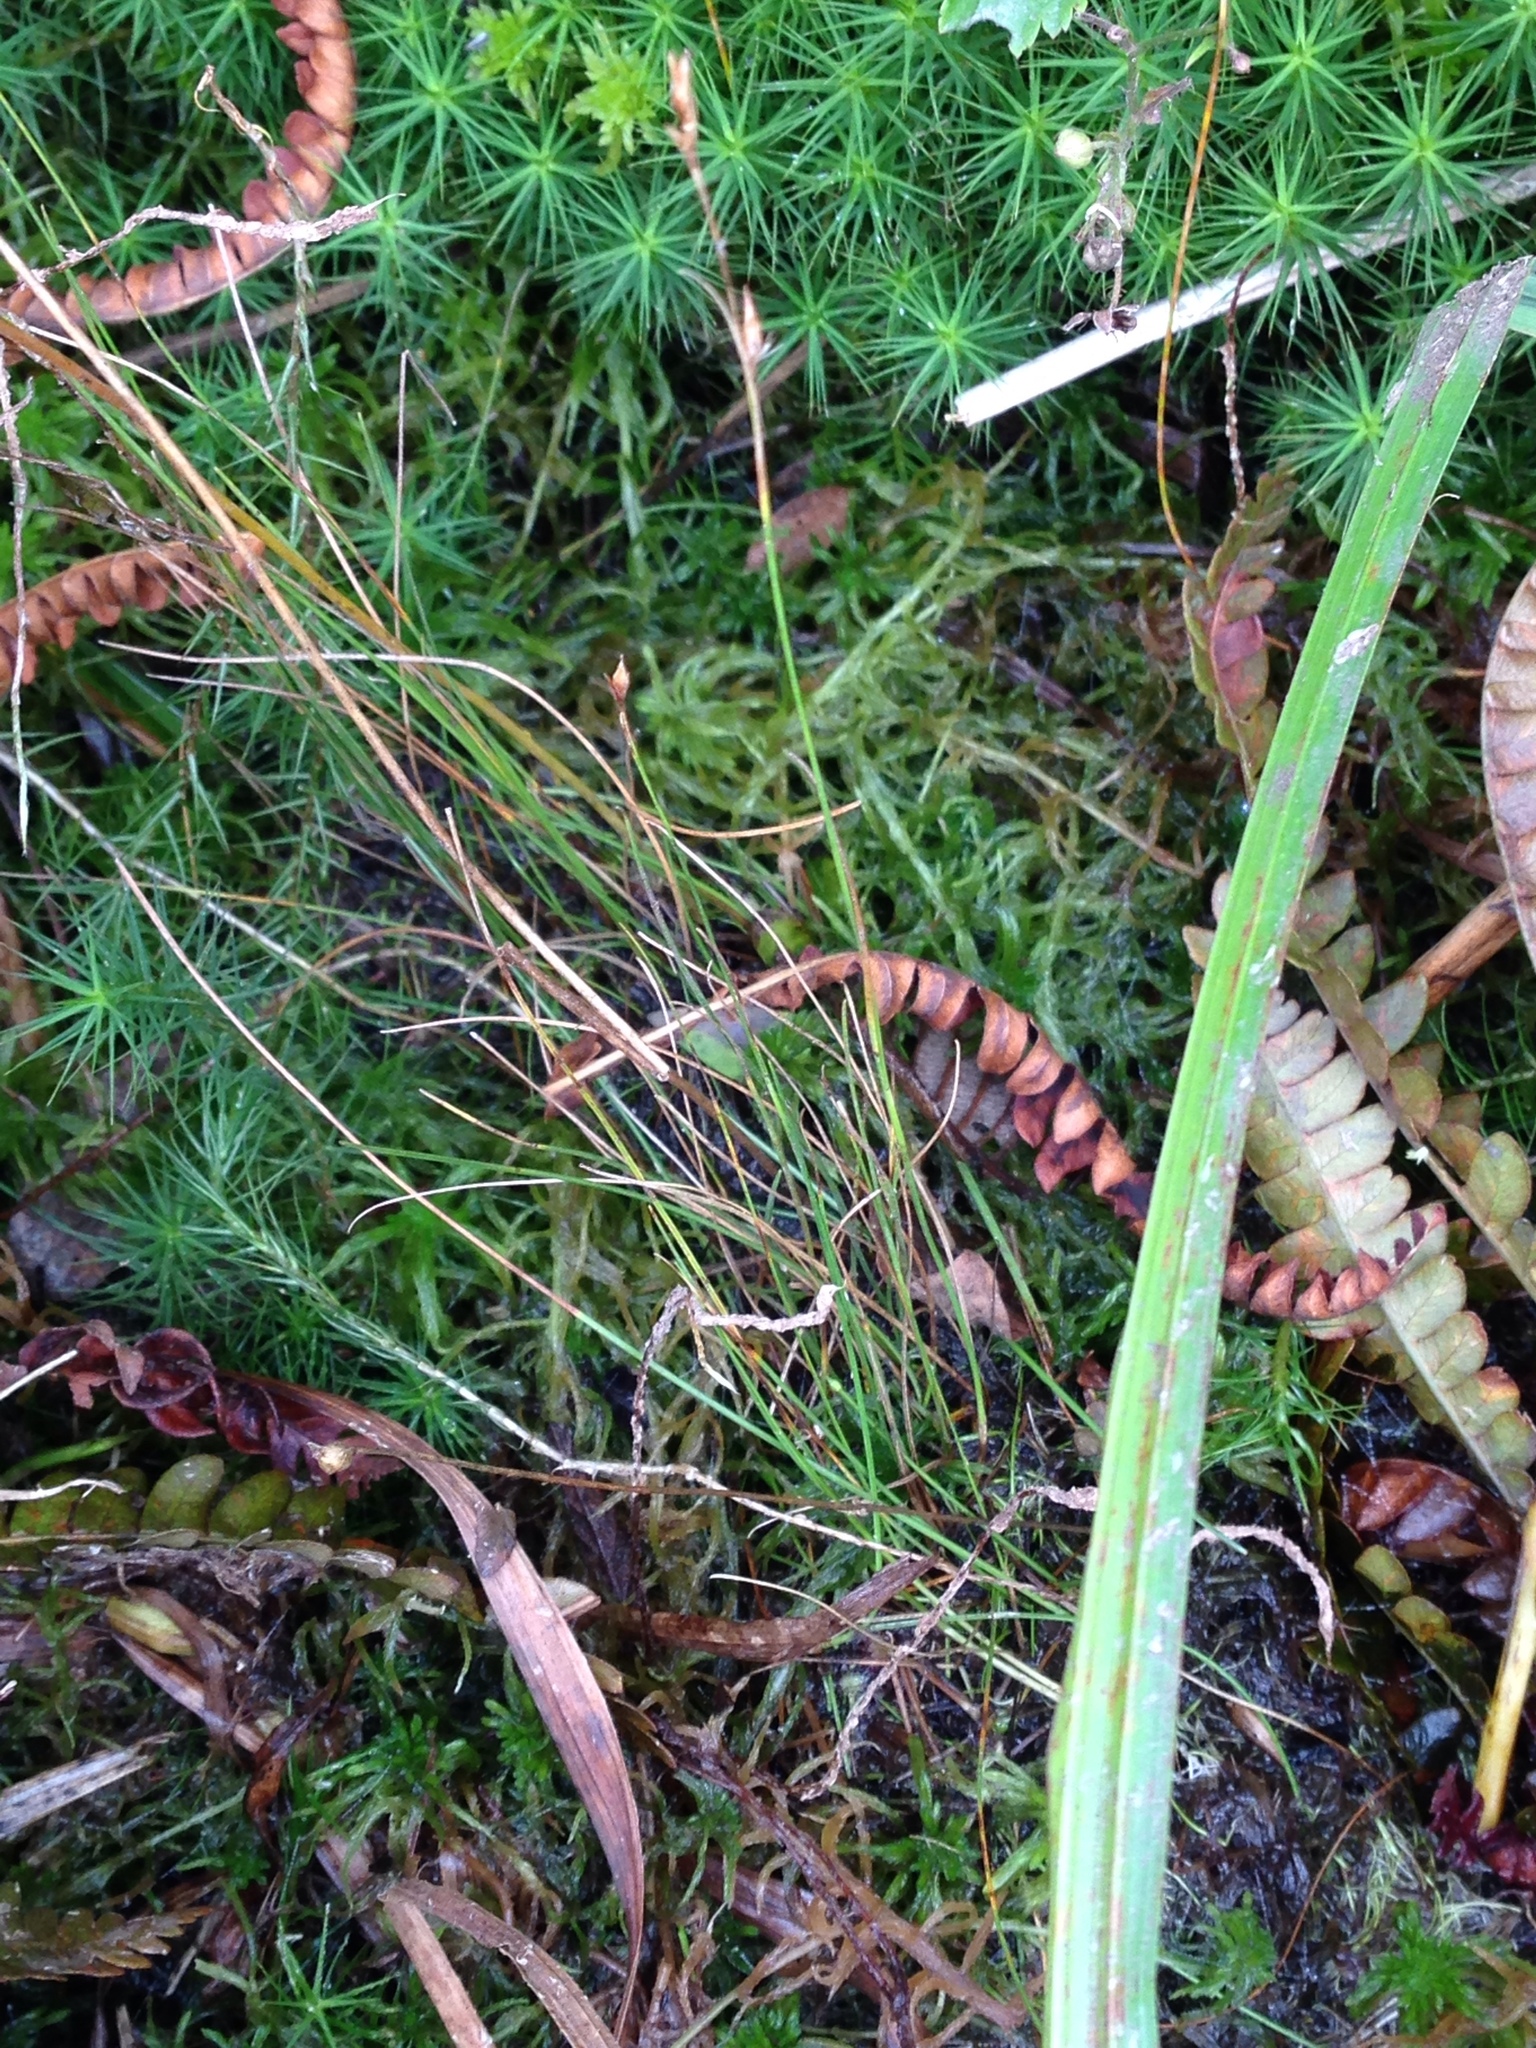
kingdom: Plantae
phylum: Tracheophyta
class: Magnoliopsida
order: Lamiales
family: Lentibulariaceae
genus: Utricularia
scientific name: Utricularia cornuta
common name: Horned bladderwort
